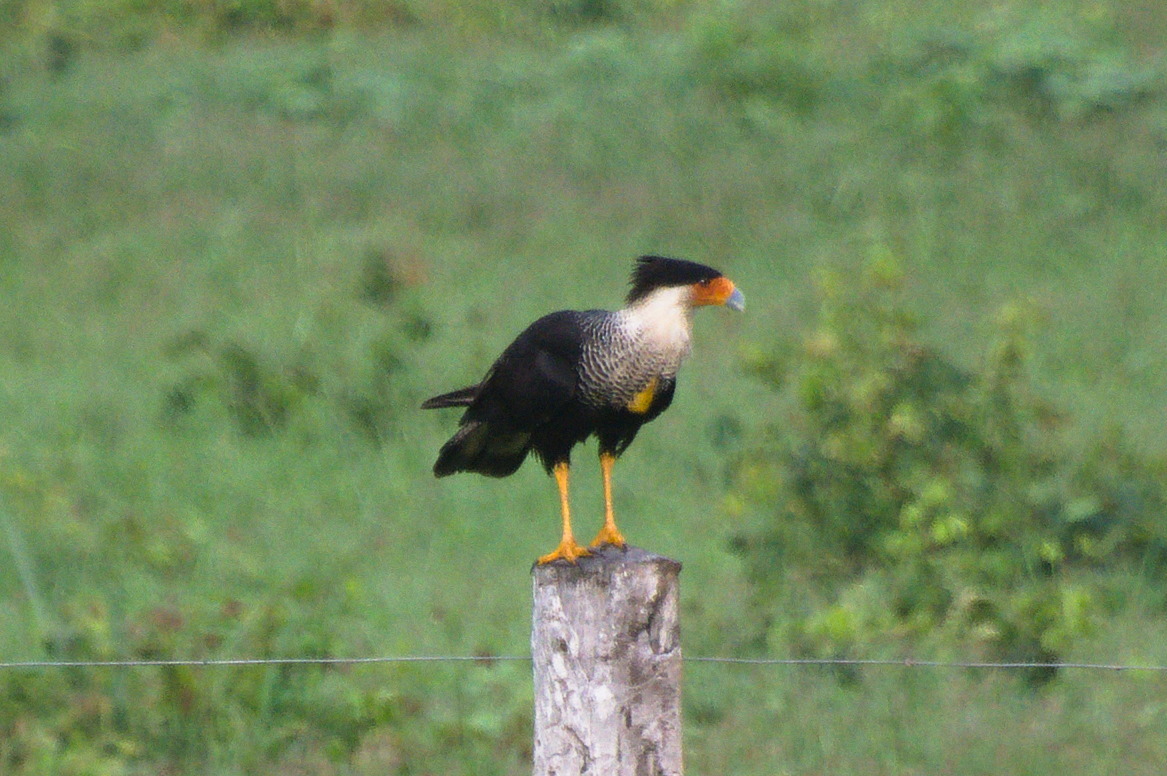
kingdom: Animalia
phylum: Chordata
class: Aves
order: Falconiformes
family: Falconidae
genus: Caracara
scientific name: Caracara plancus
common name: Southern caracara
